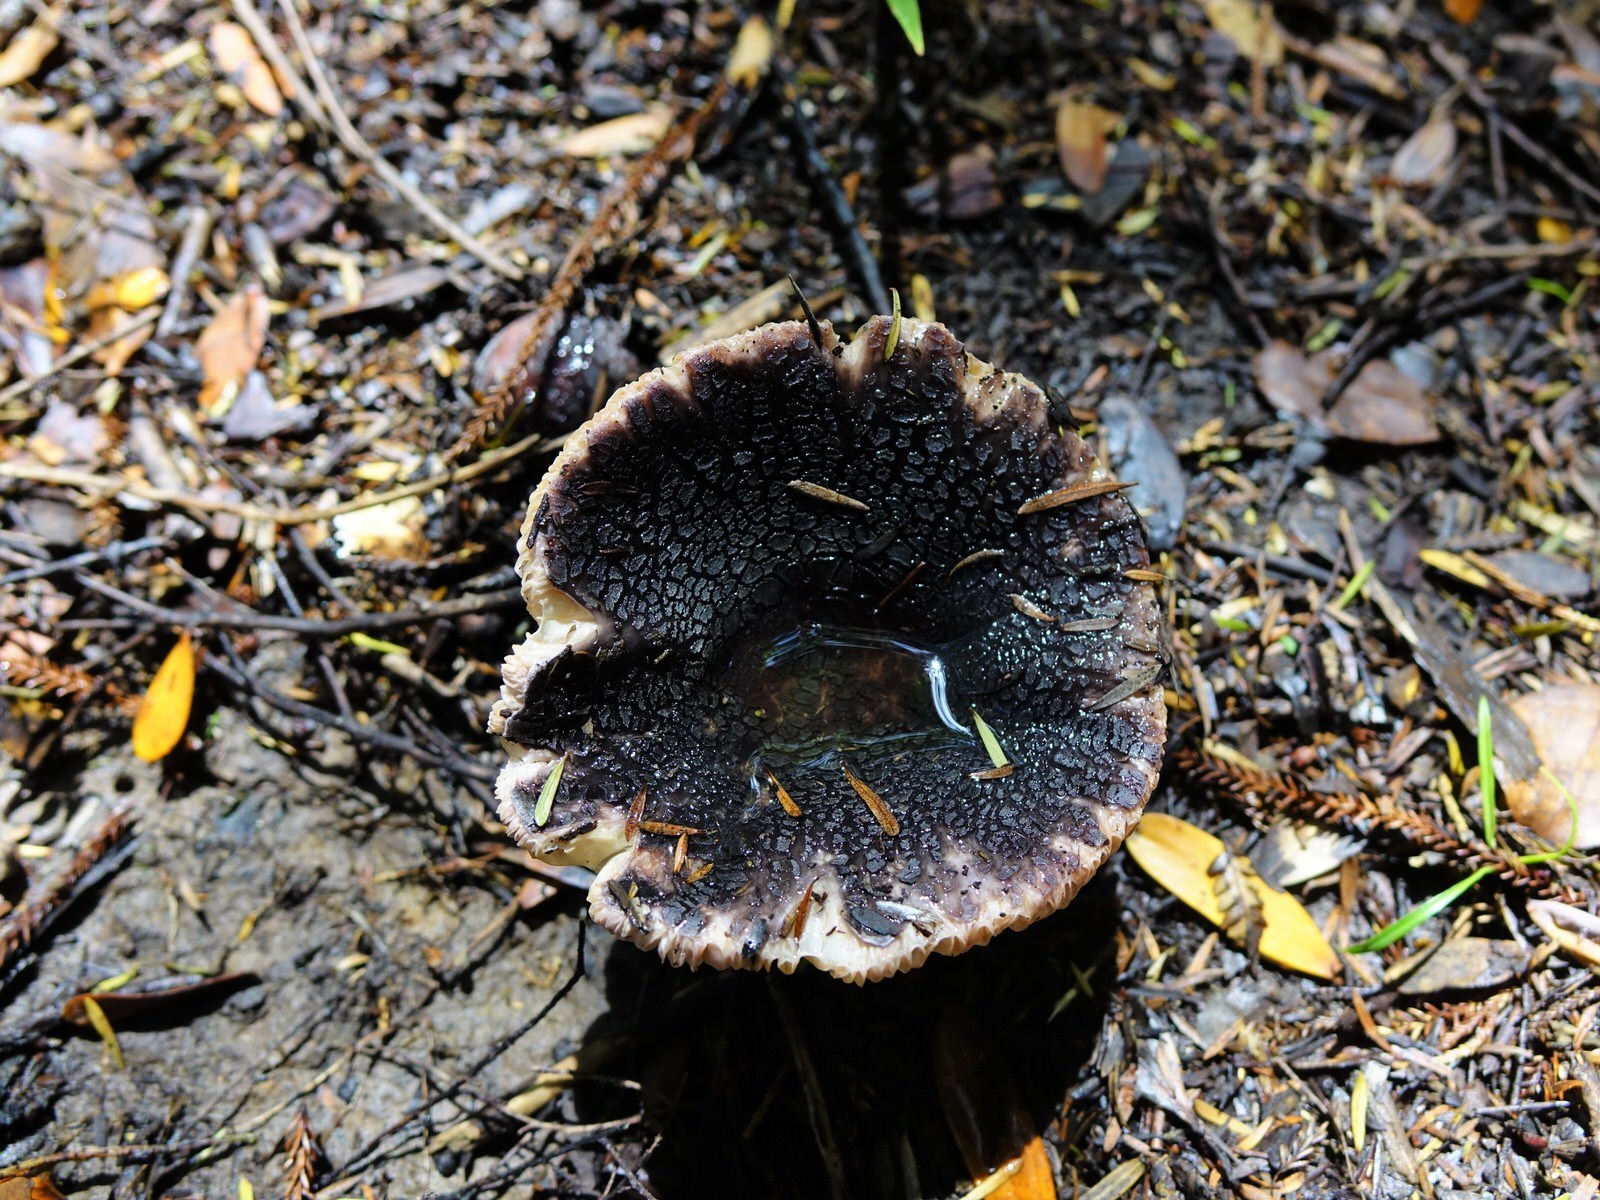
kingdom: Fungi
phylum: Basidiomycota
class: Agaricomycetes
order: Russulales
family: Russulaceae
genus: Russula
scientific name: Russula griseoviridis
